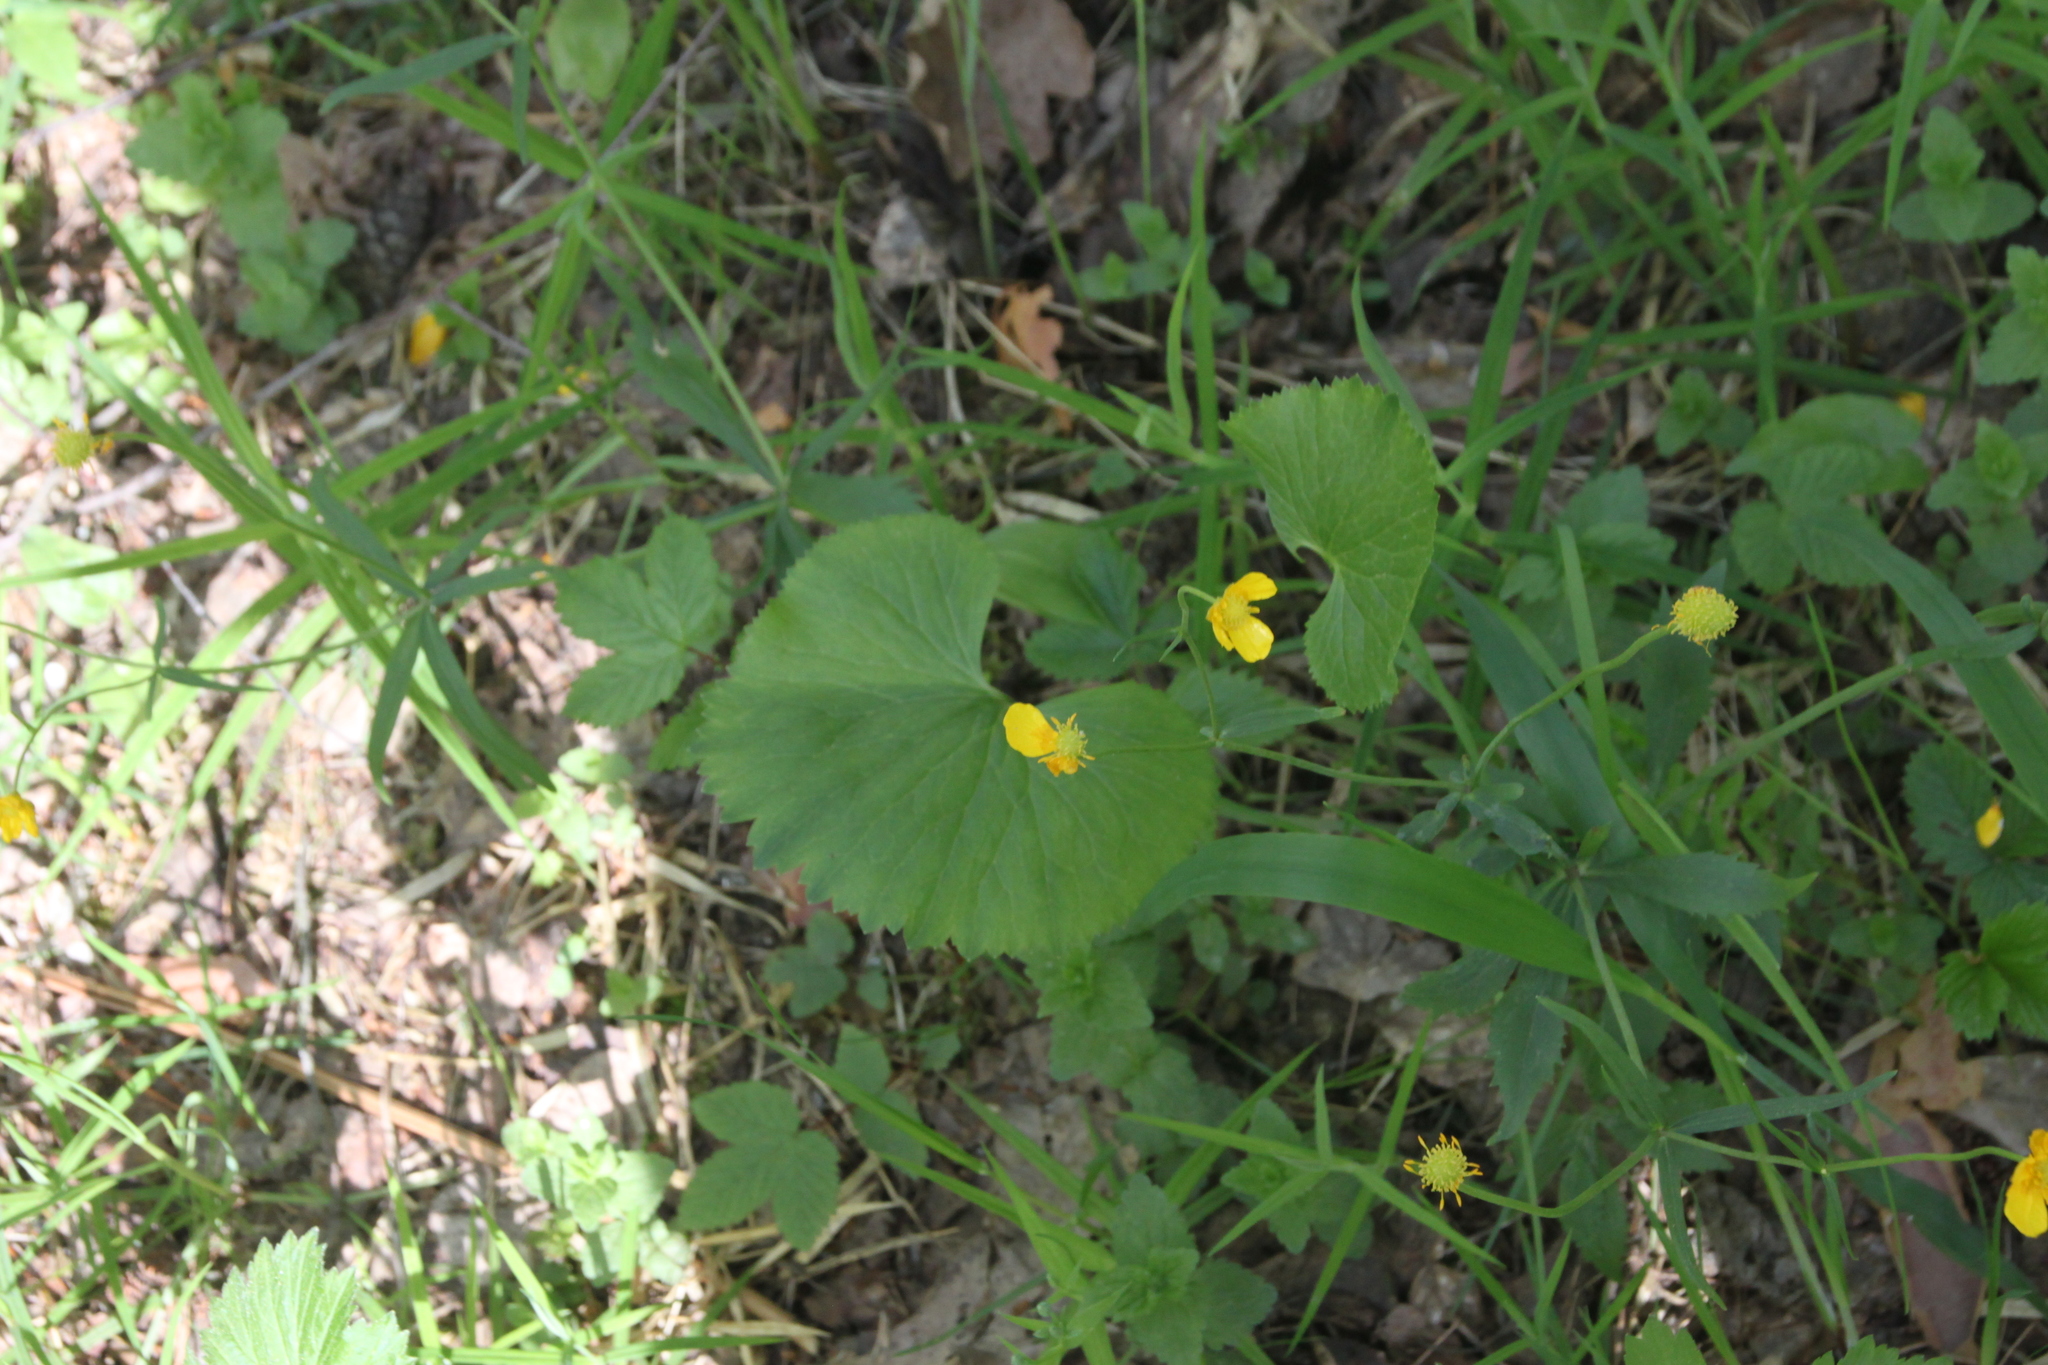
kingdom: Plantae
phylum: Tracheophyta
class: Magnoliopsida
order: Ranunculales
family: Ranunculaceae
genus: Ranunculus
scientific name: Ranunculus cassubicus
